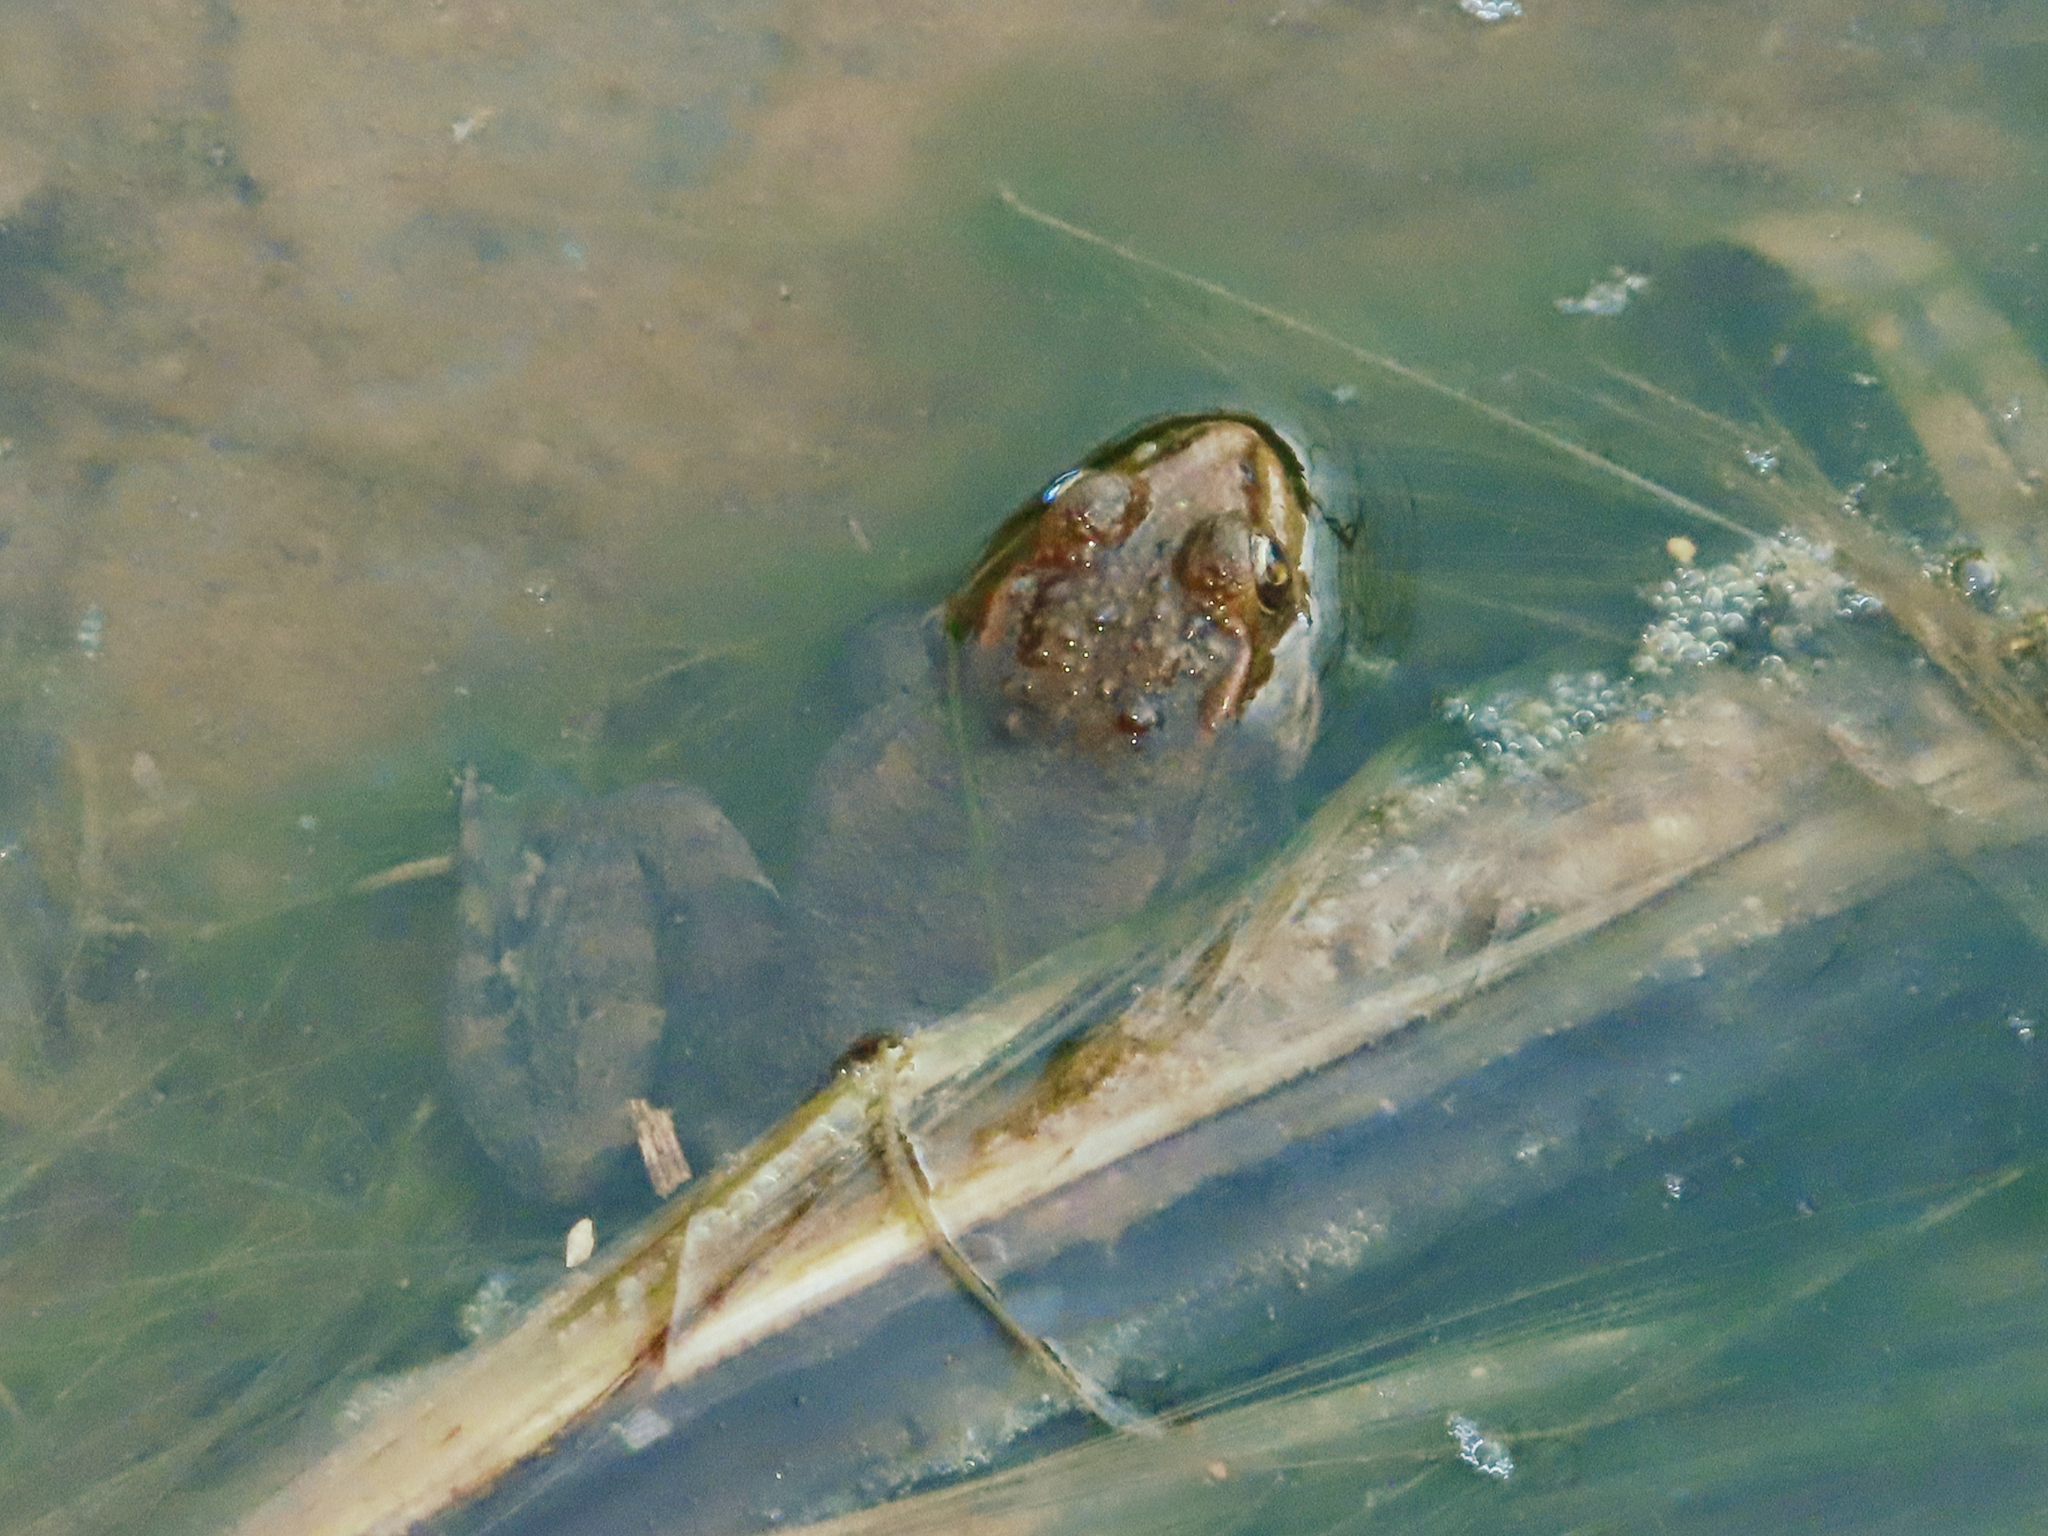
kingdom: Animalia
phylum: Chordata
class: Amphibia
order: Anura
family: Ranidae
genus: Pelophylax
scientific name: Pelophylax ridibundus
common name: Marsh frog
